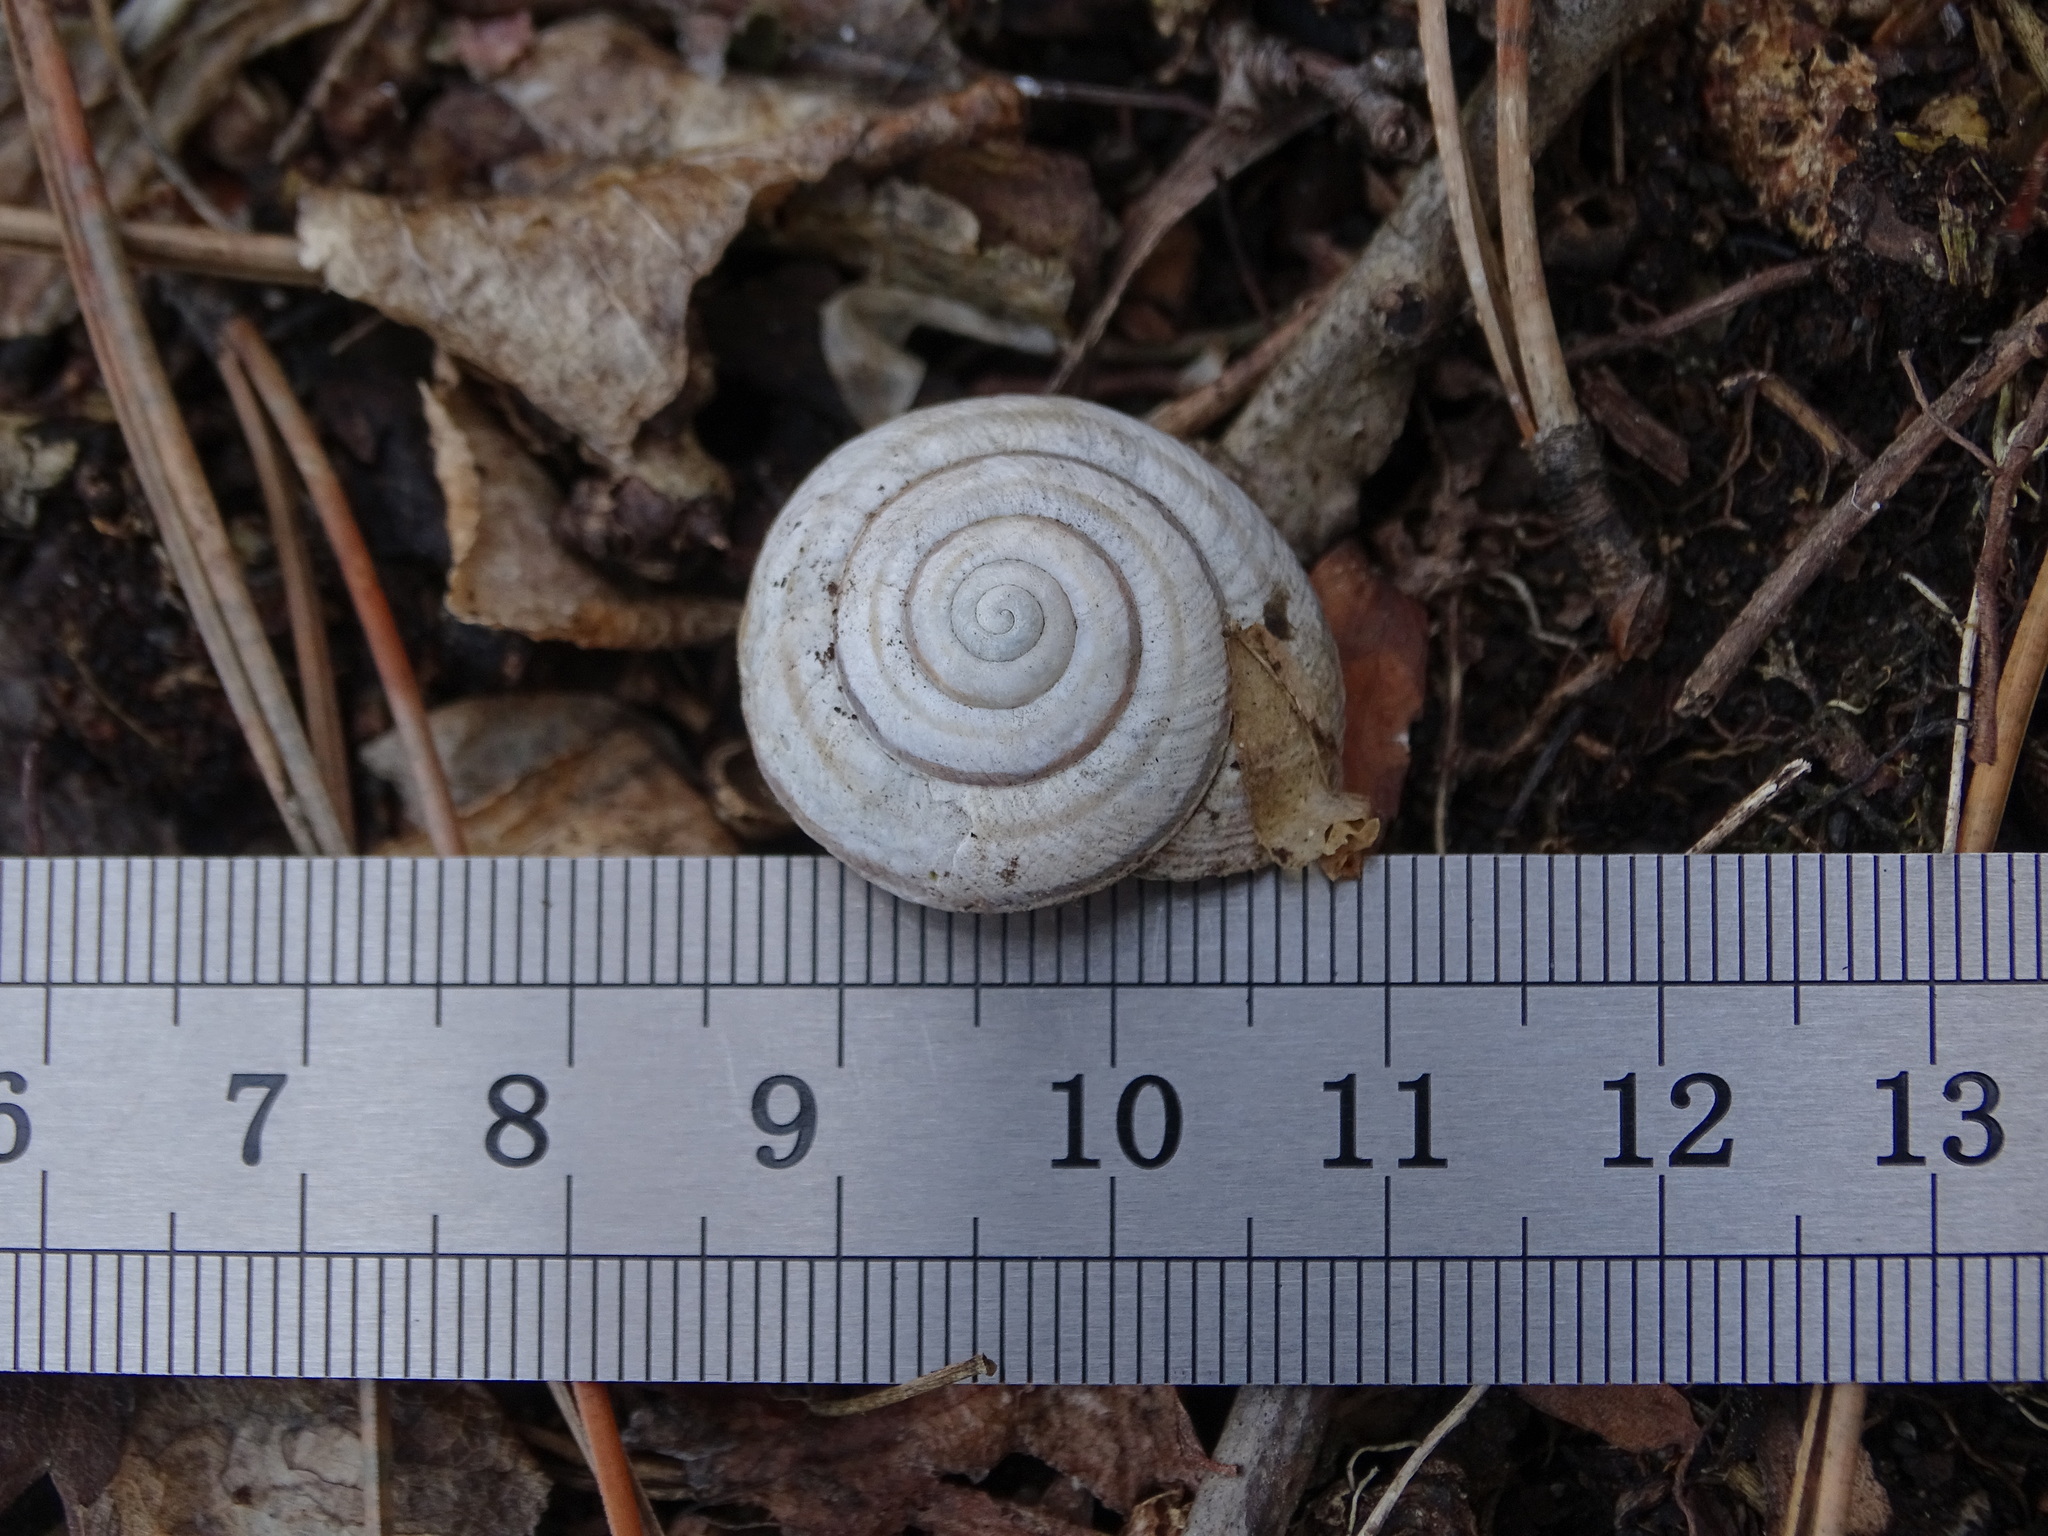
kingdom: Animalia
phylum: Mollusca
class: Gastropoda
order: Stylommatophora
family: Helicidae
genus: Caucasotachea
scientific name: Caucasotachea vindobonensis
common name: European helicid land snail
